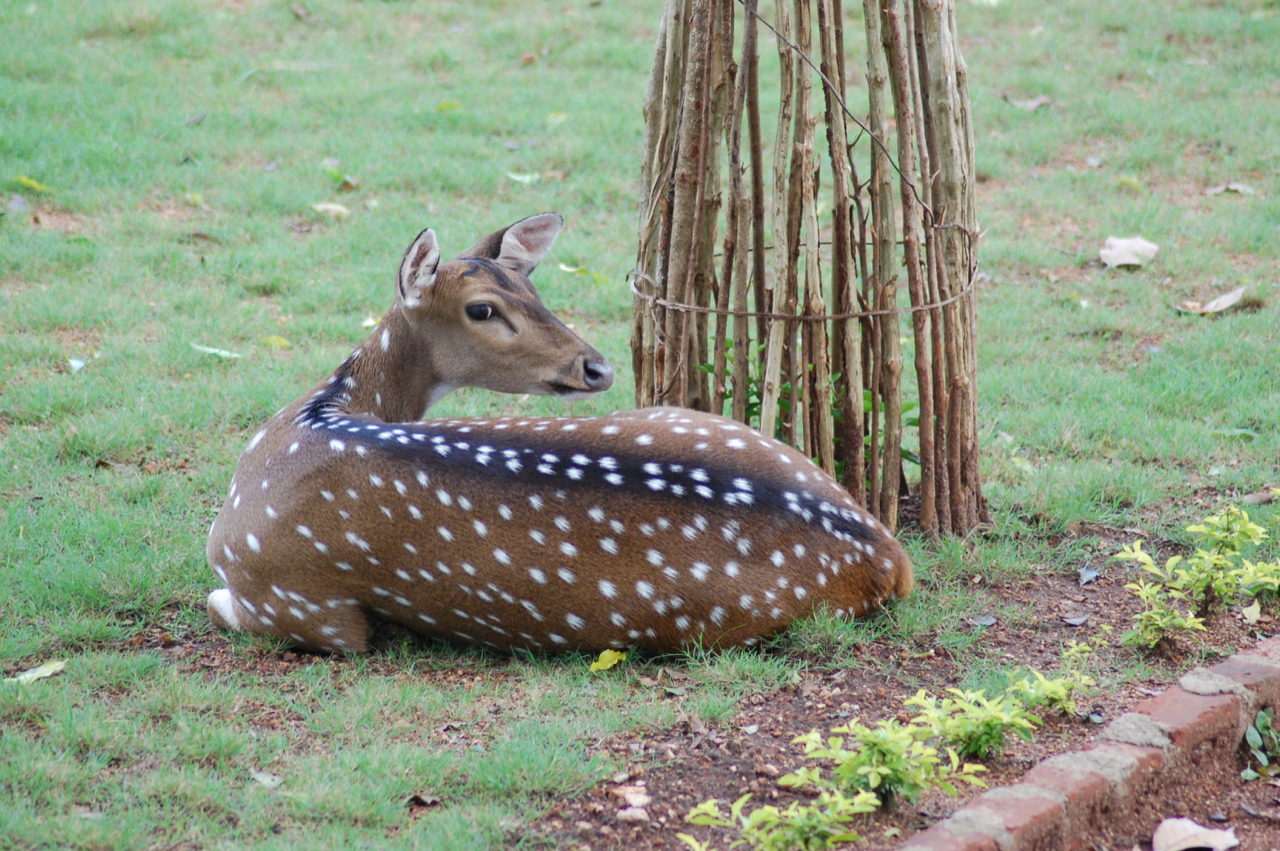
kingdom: Animalia
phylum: Chordata
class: Mammalia
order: Artiodactyla
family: Cervidae
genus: Axis
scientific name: Axis axis
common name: Chital
